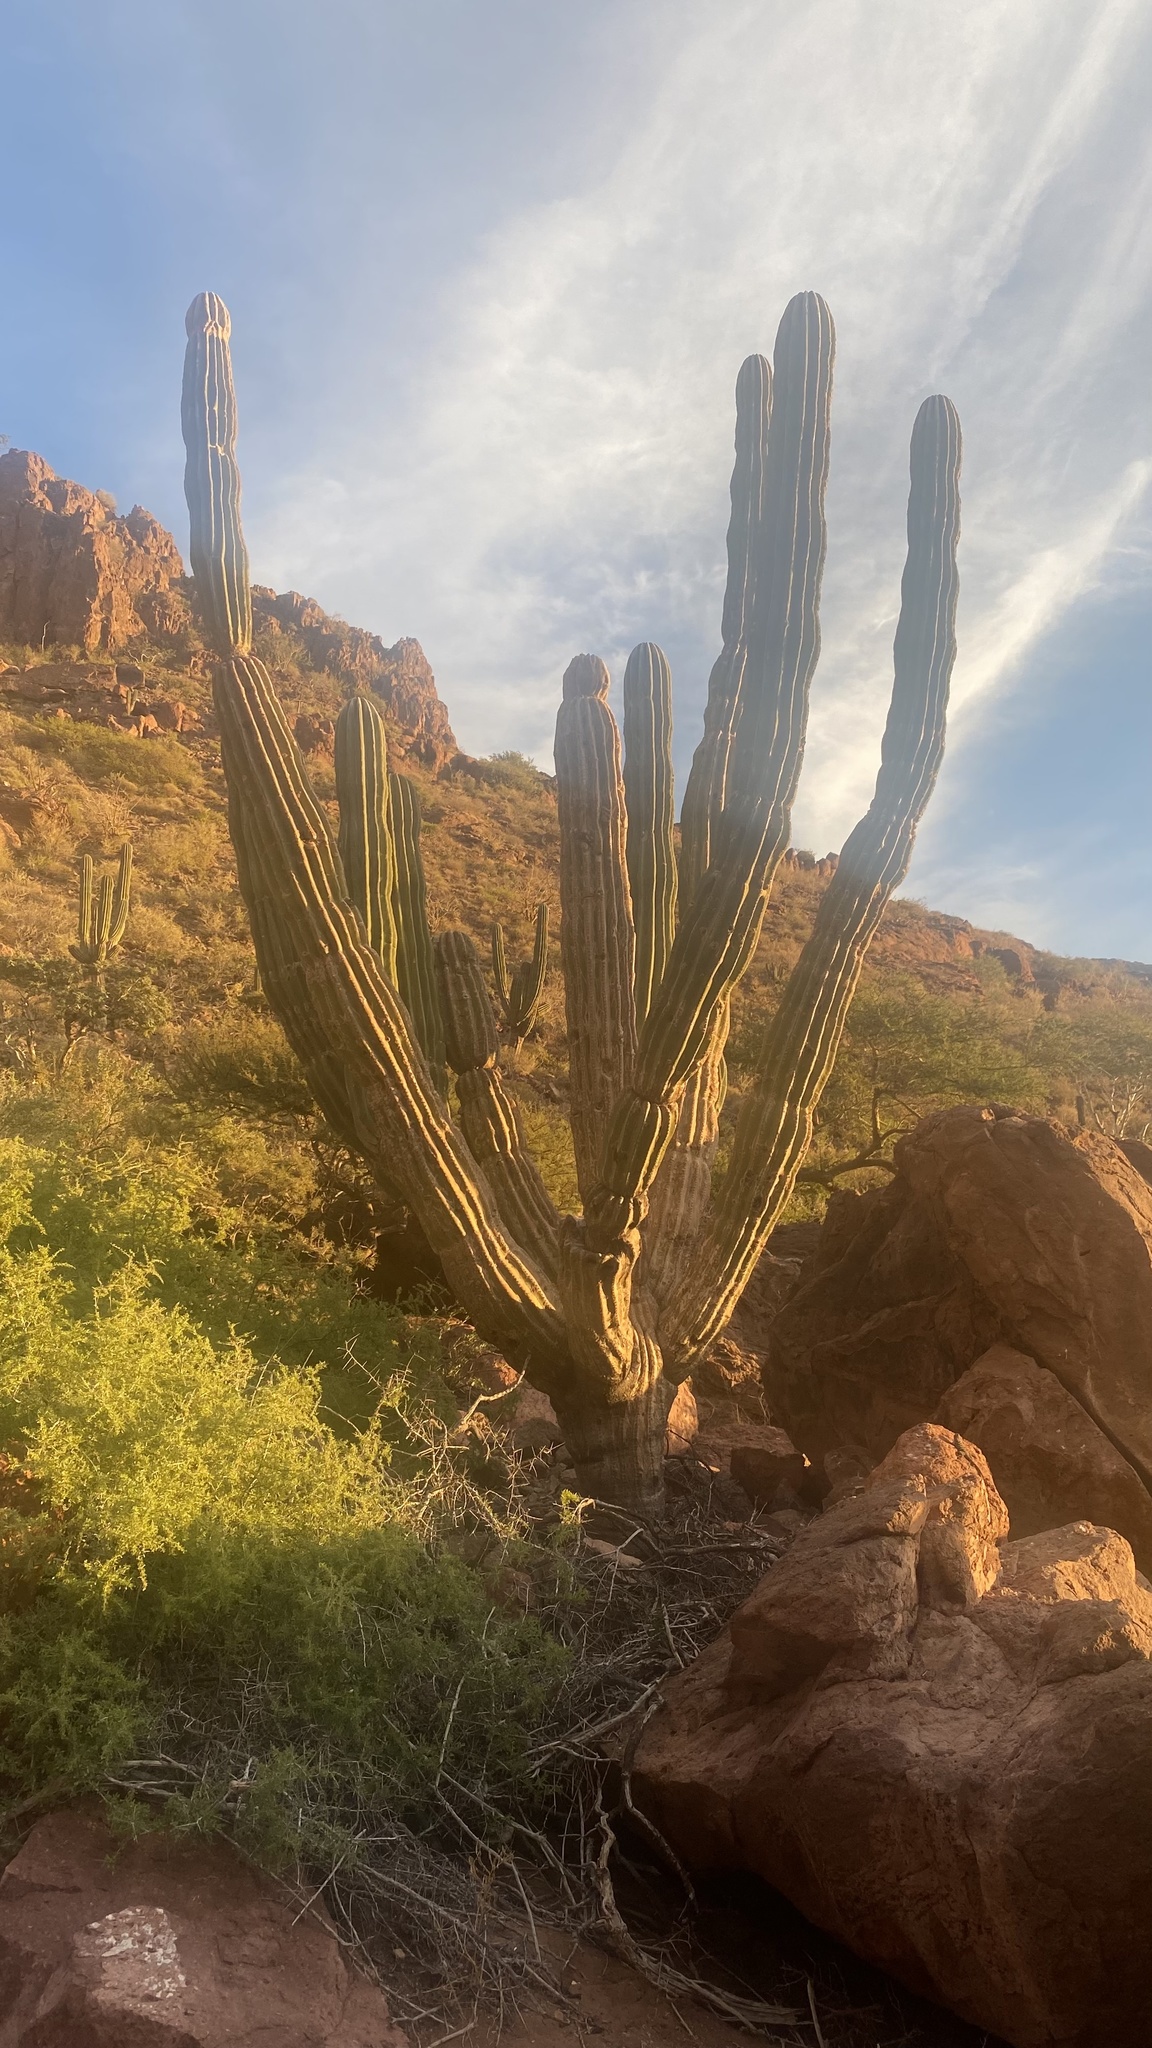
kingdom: Plantae
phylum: Tracheophyta
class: Magnoliopsida
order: Caryophyllales
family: Cactaceae
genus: Pachycereus
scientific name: Pachycereus pringlei
